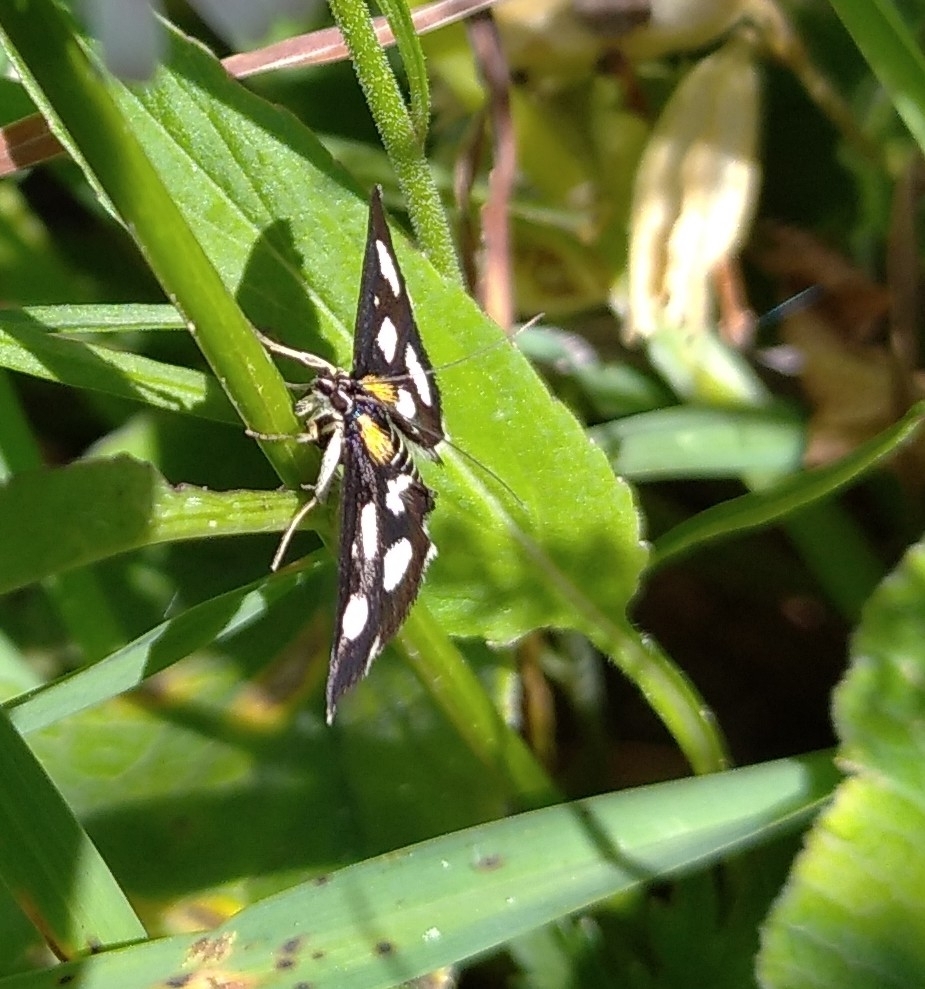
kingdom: Animalia
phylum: Arthropoda
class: Insecta
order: Lepidoptera
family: Crambidae
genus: Anania
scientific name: Anania funebris
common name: White-spotted sable moth
